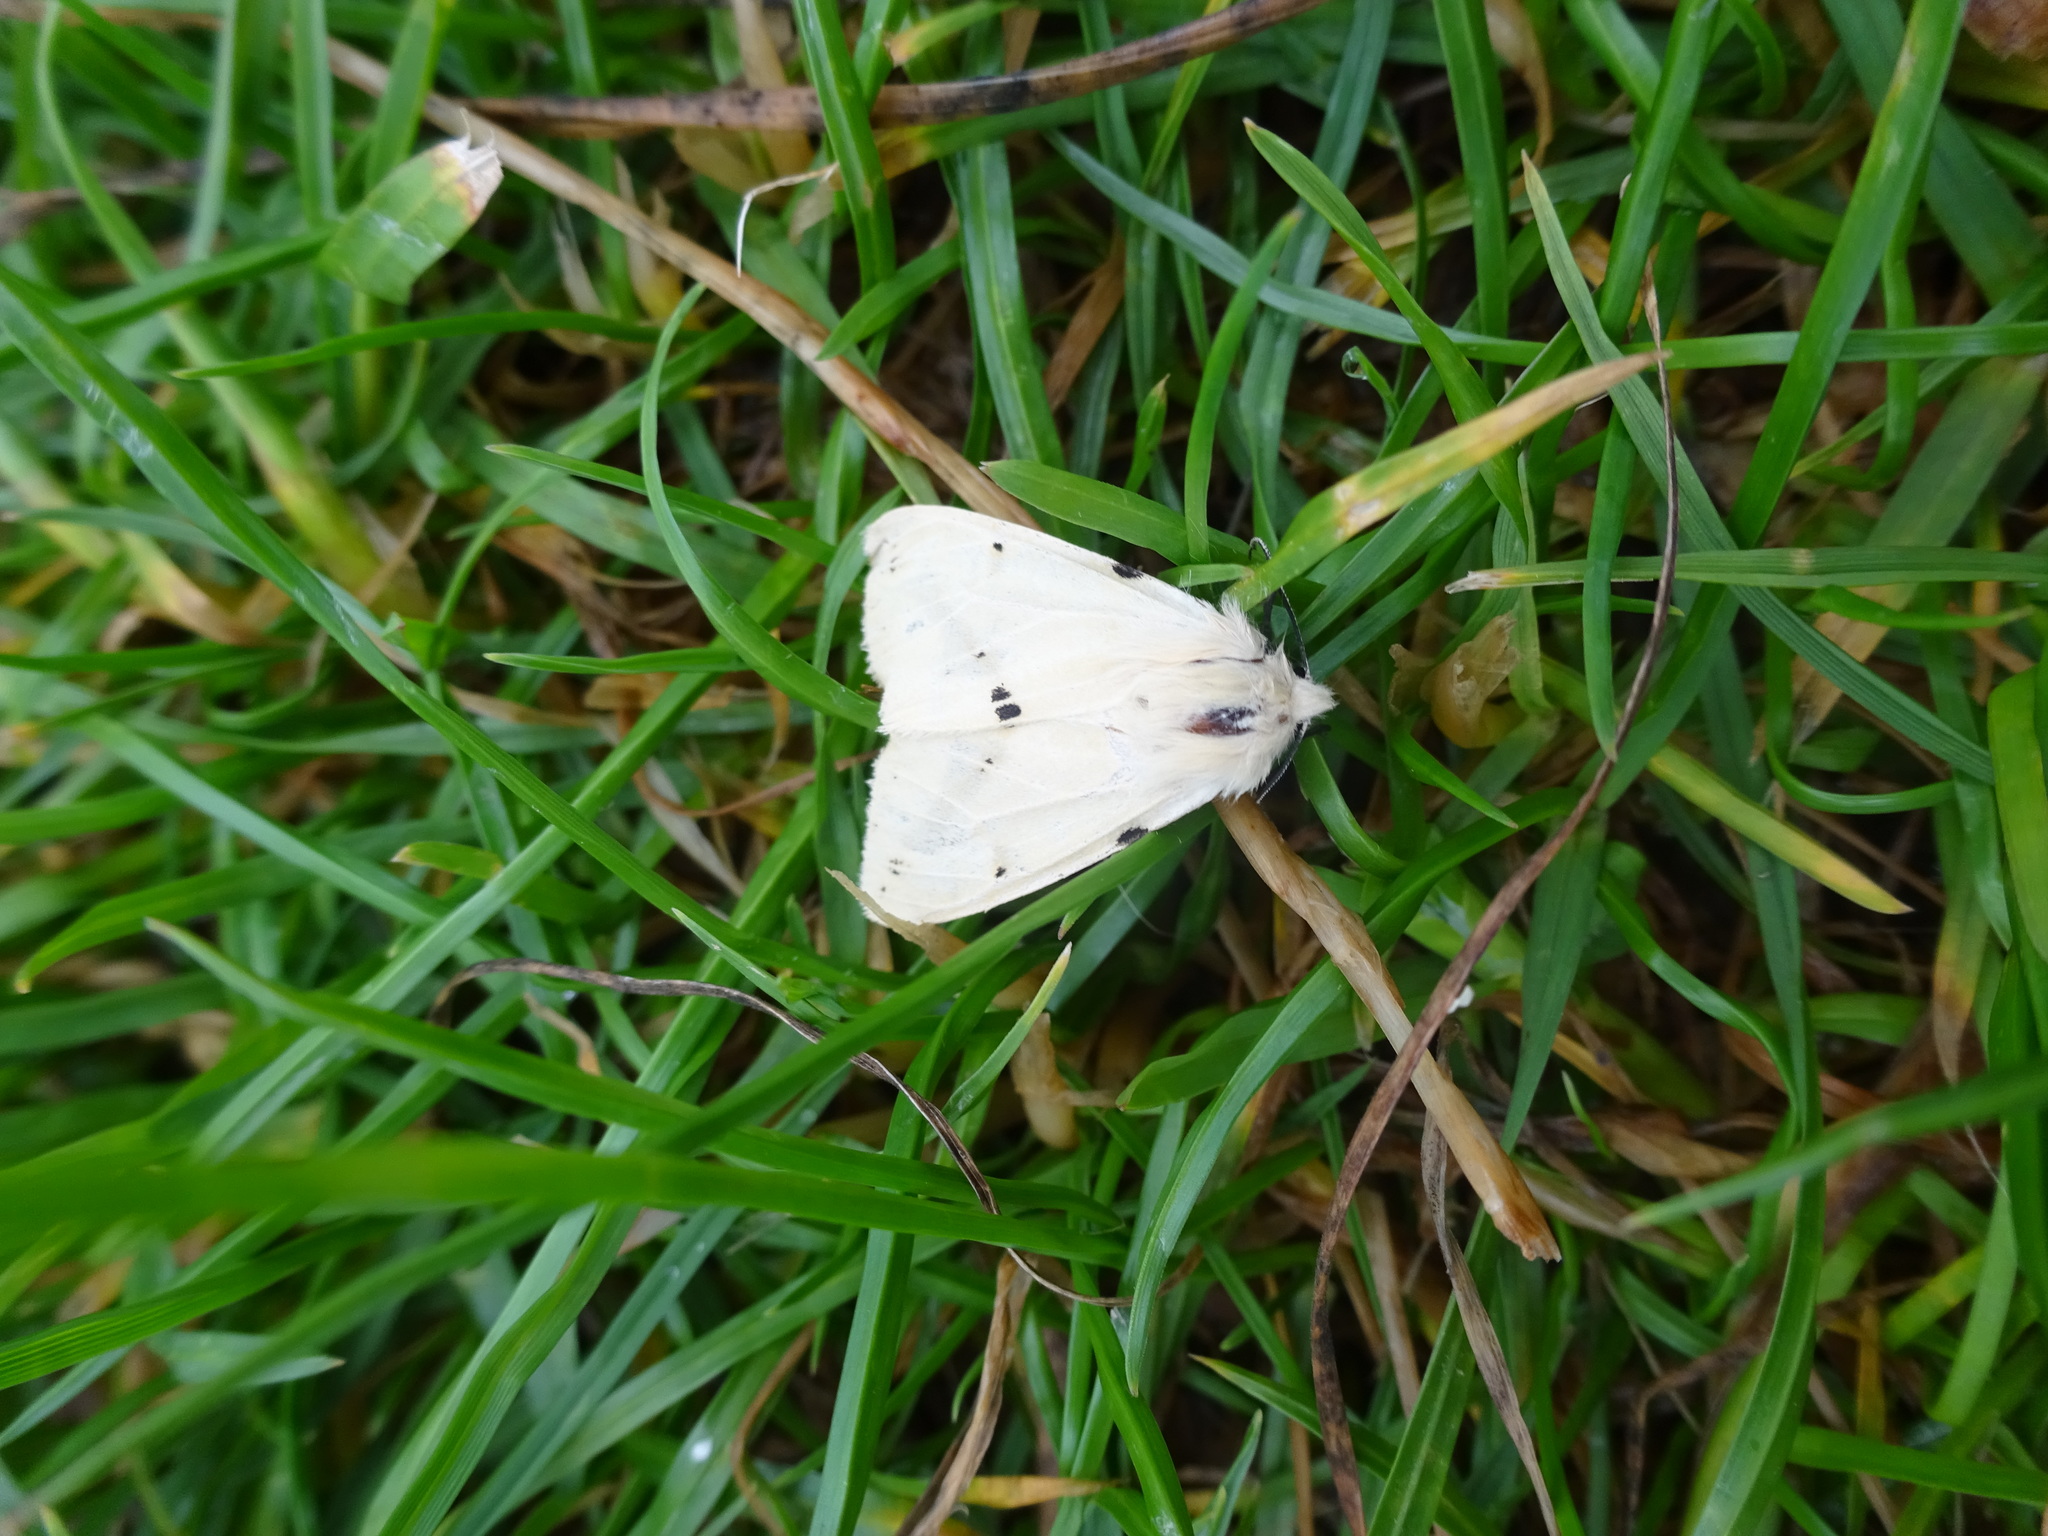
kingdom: Animalia
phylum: Arthropoda
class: Insecta
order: Lepidoptera
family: Erebidae
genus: Spilarctia
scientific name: Spilarctia lutea
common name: Buff ermine
